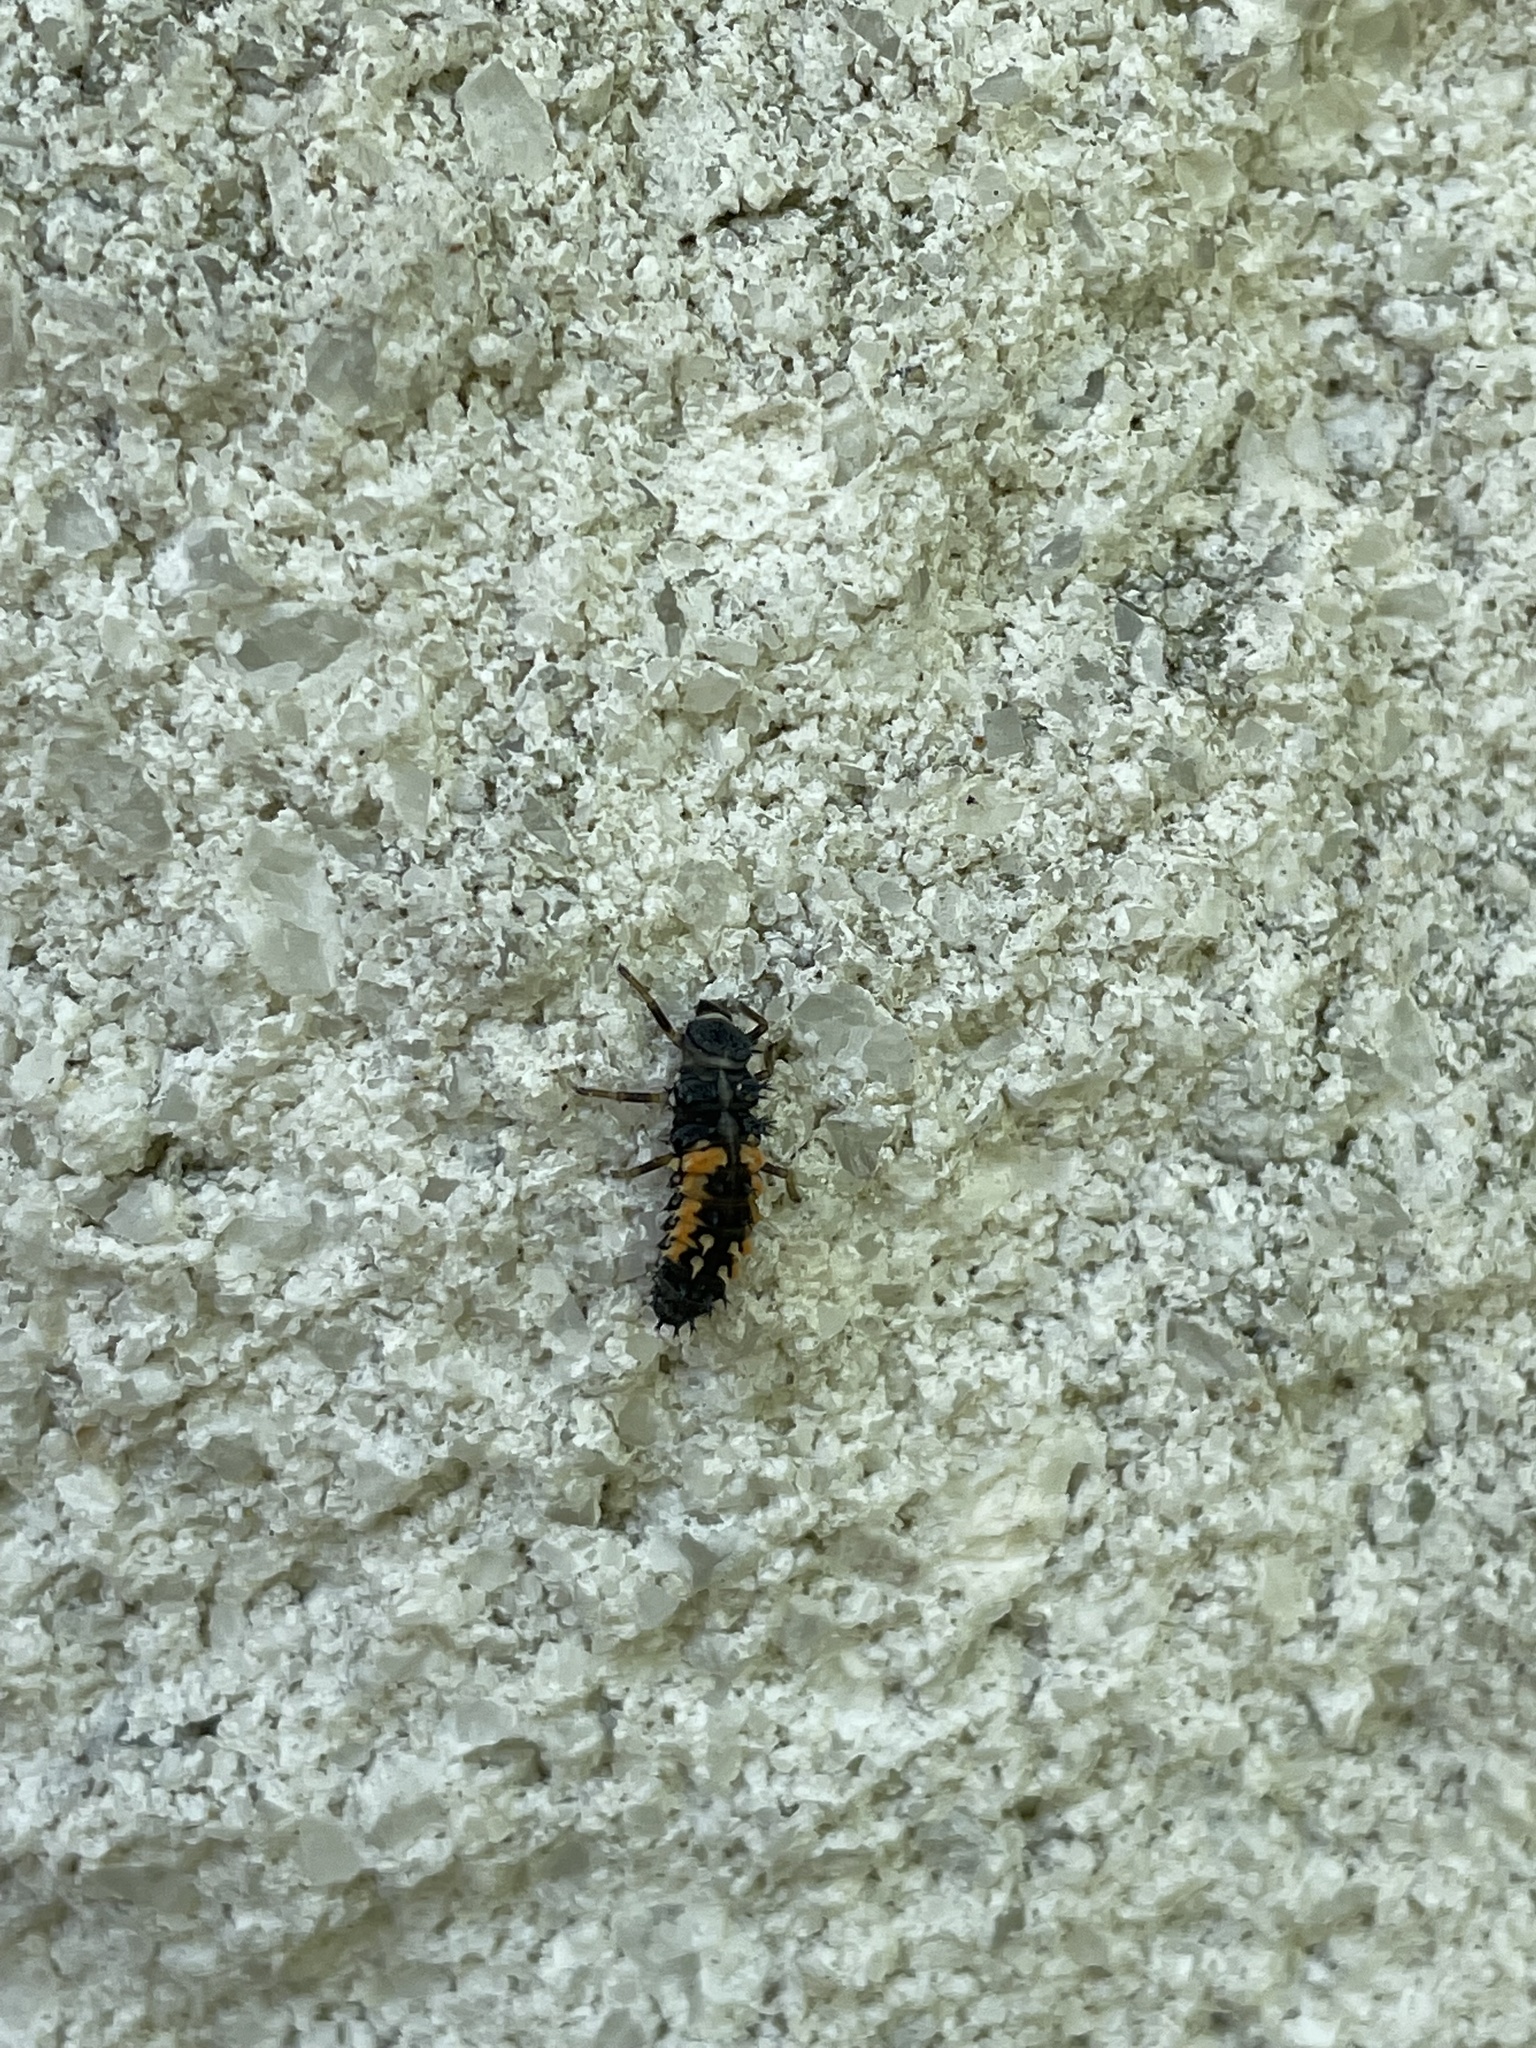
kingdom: Animalia
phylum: Arthropoda
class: Insecta
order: Coleoptera
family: Coccinellidae
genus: Harmonia
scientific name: Harmonia axyridis
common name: Harlequin ladybird
